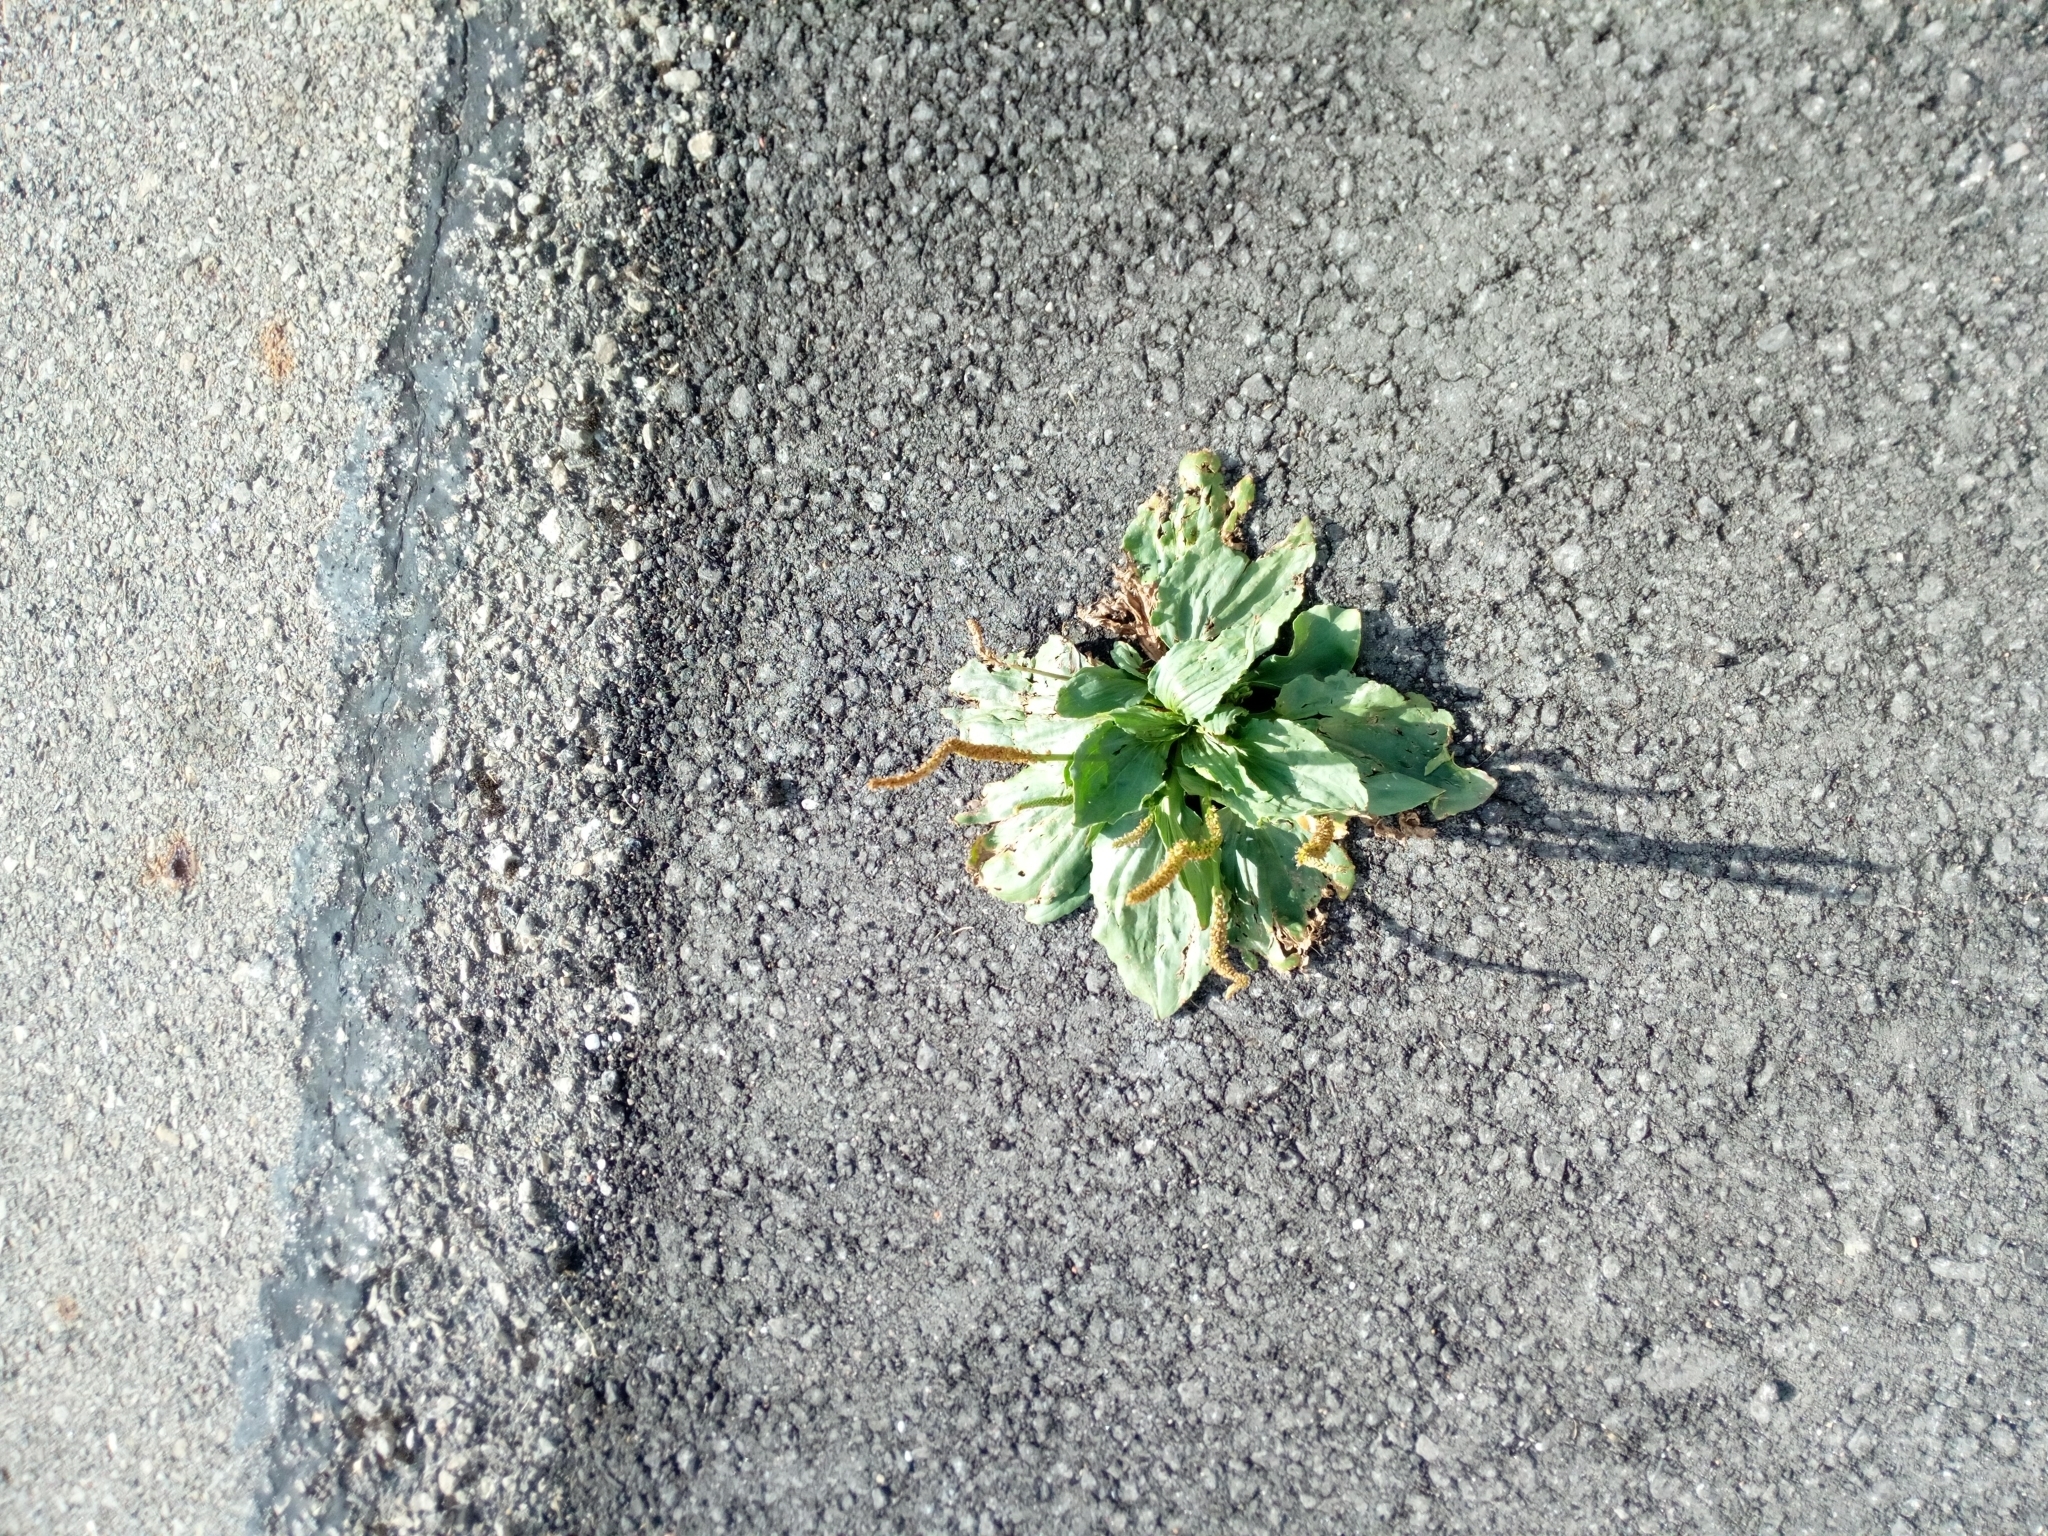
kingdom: Plantae
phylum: Tracheophyta
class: Magnoliopsida
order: Lamiales
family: Plantaginaceae
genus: Plantago
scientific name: Plantago major
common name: Common plantain
